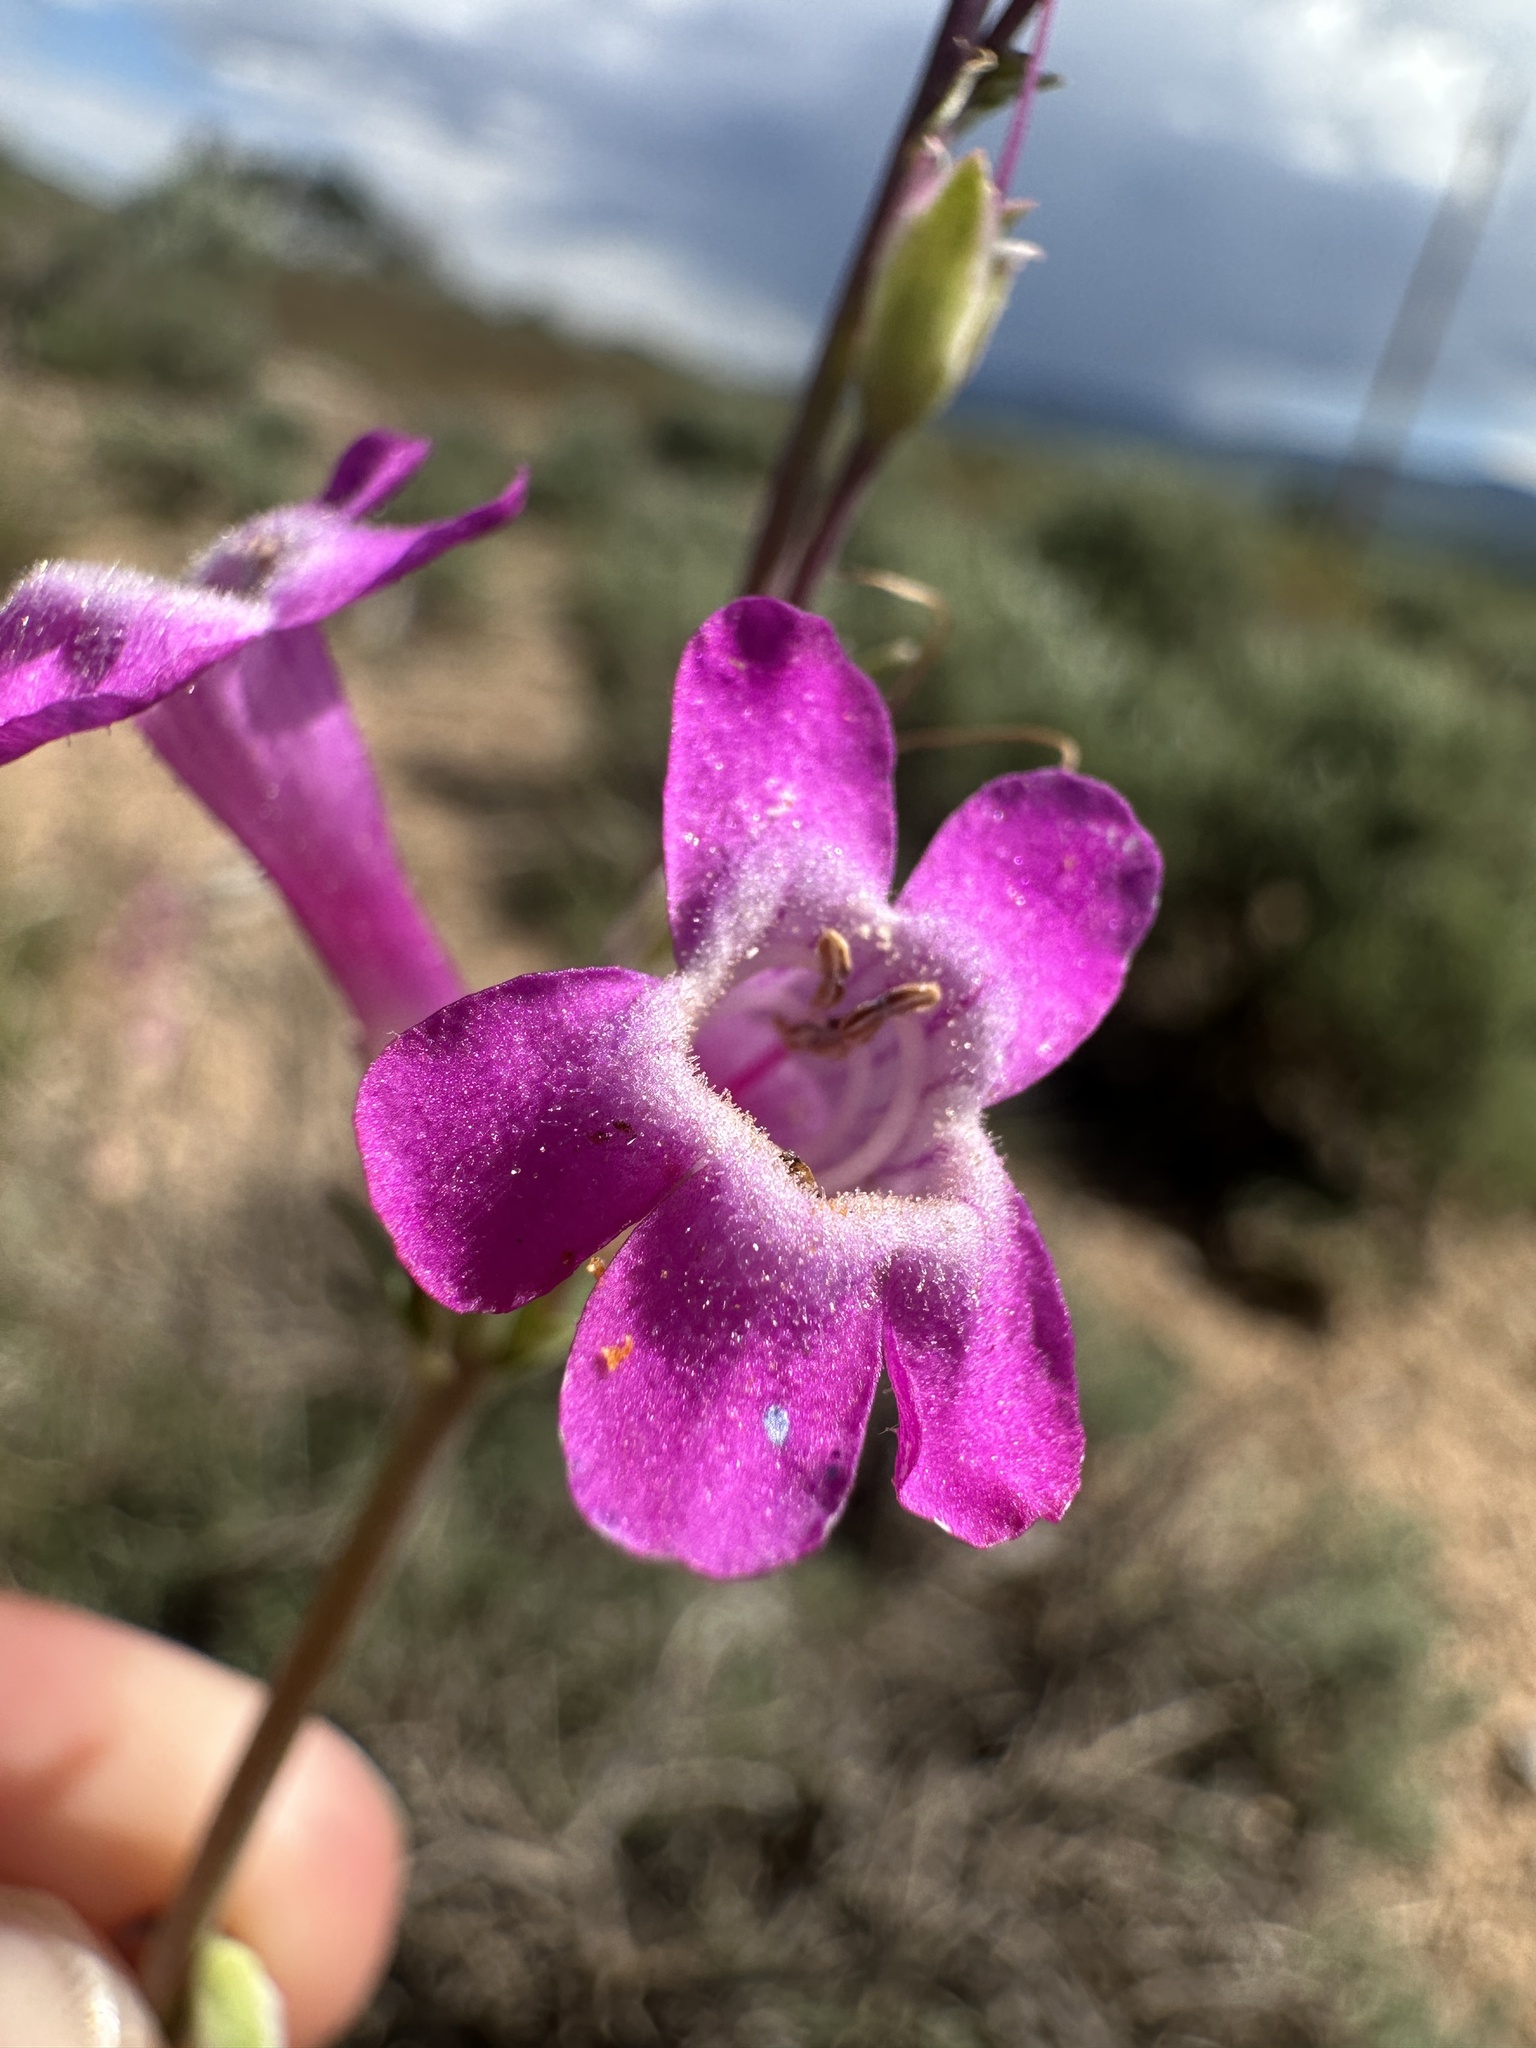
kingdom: Plantae
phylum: Tracheophyta
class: Magnoliopsida
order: Lamiales
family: Plantaginaceae
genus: Penstemon
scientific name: Penstemon confusus
